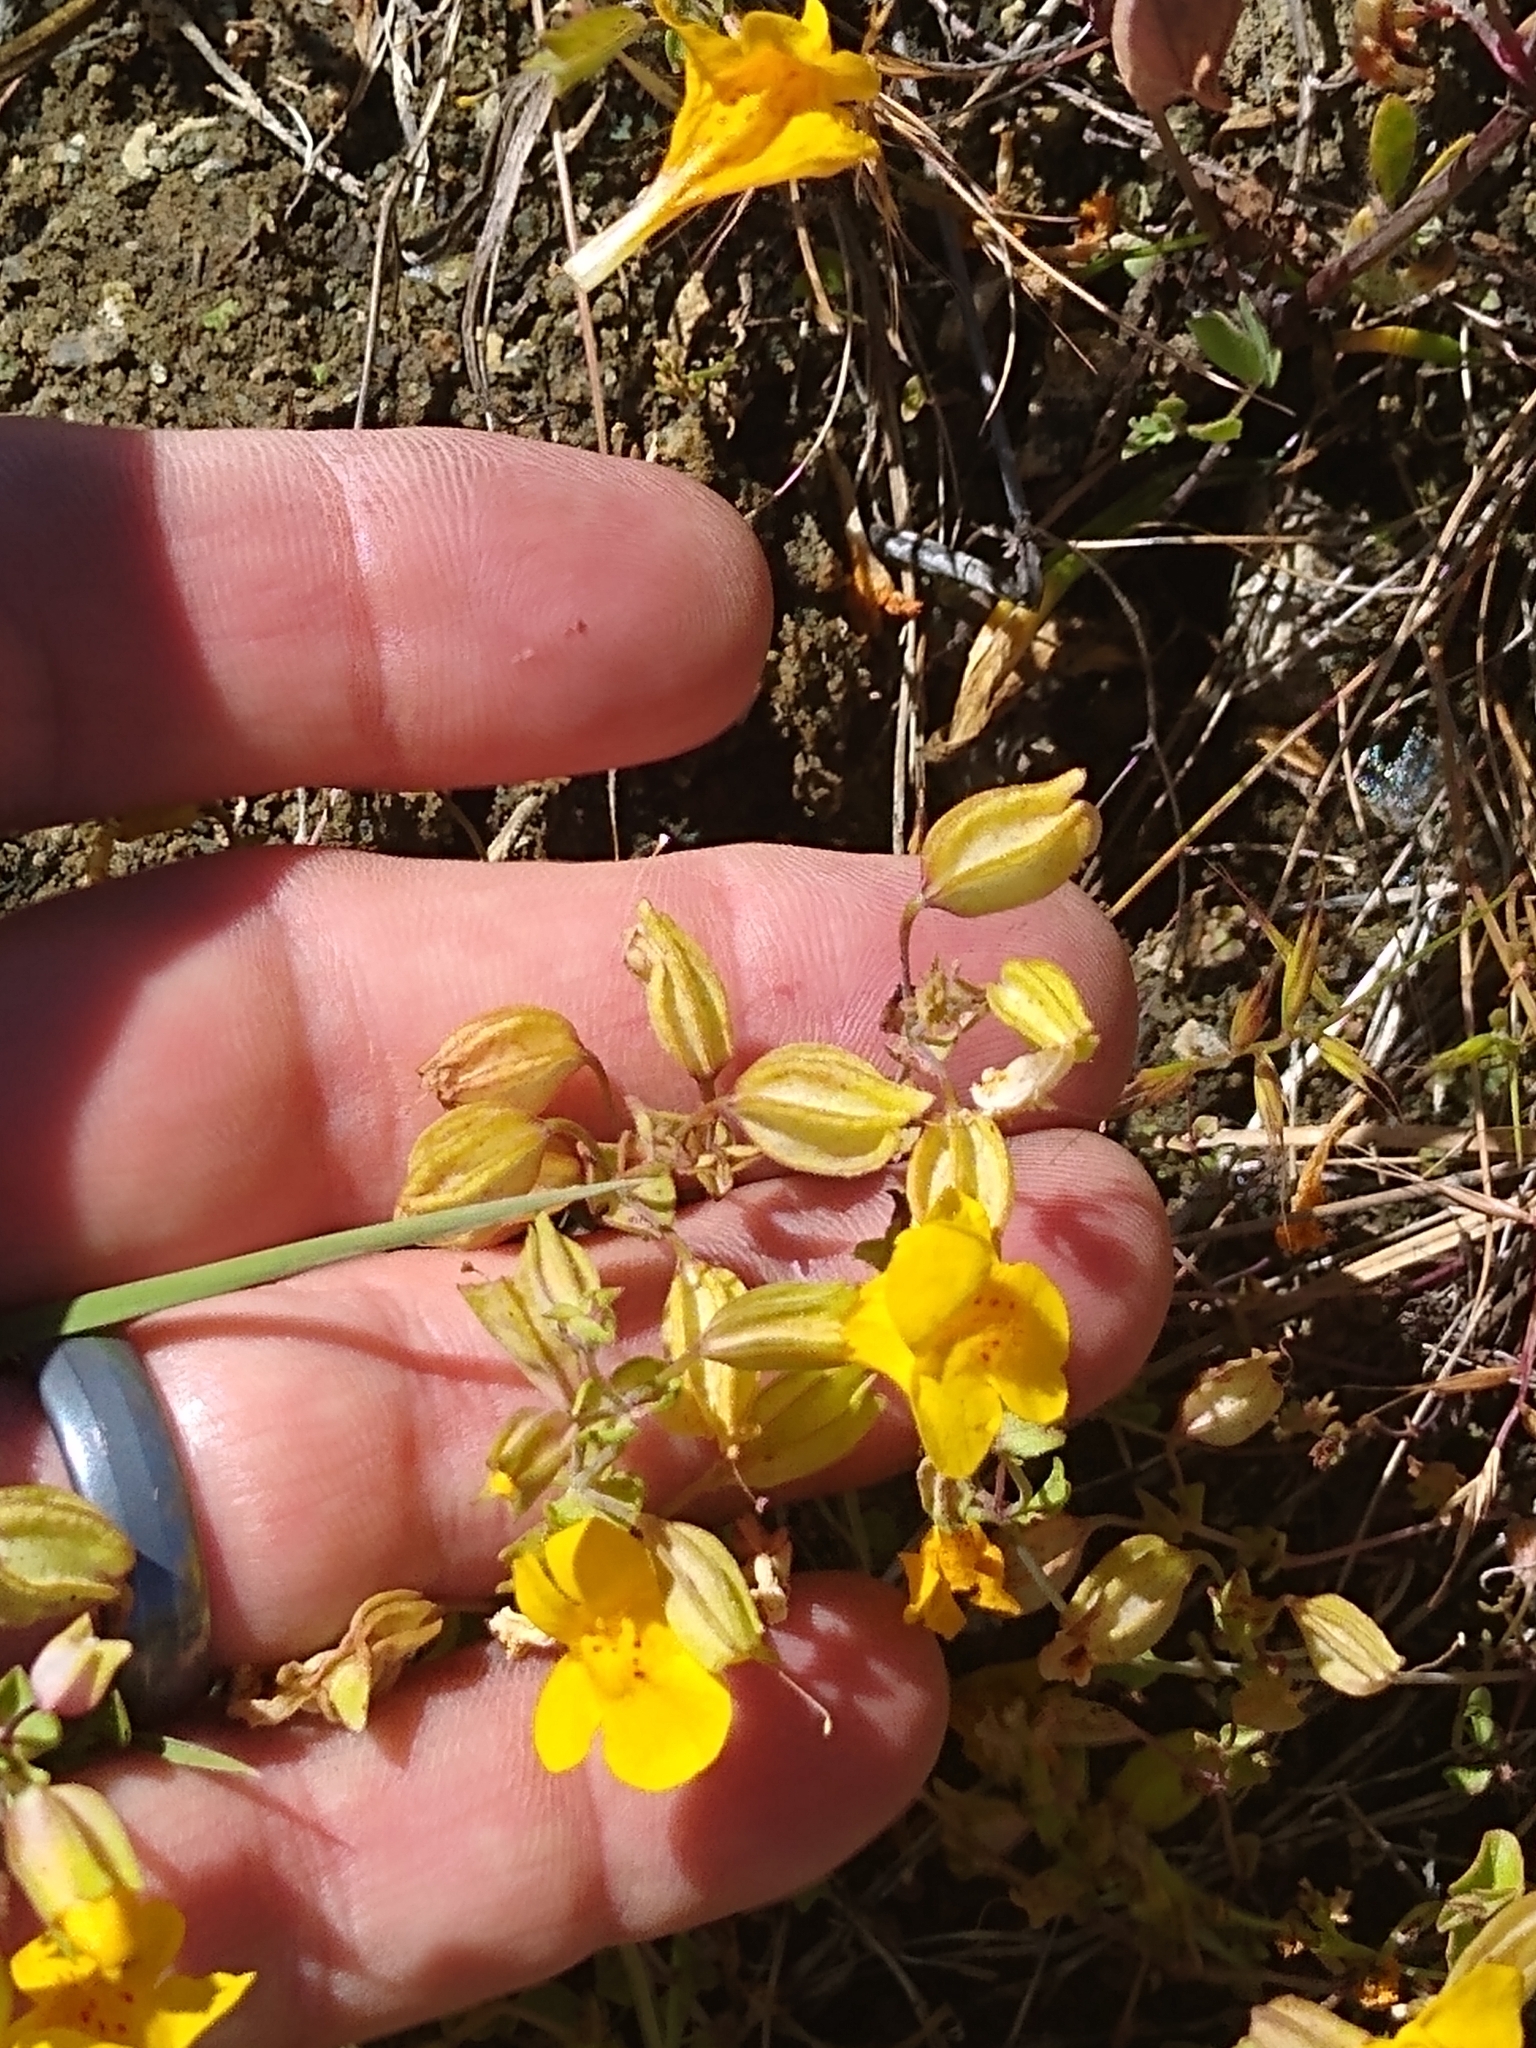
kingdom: Plantae
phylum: Tracheophyta
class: Magnoliopsida
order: Lamiales
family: Phrymaceae
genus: Erythranthe
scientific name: Erythranthe guttata
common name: Monkeyflower
